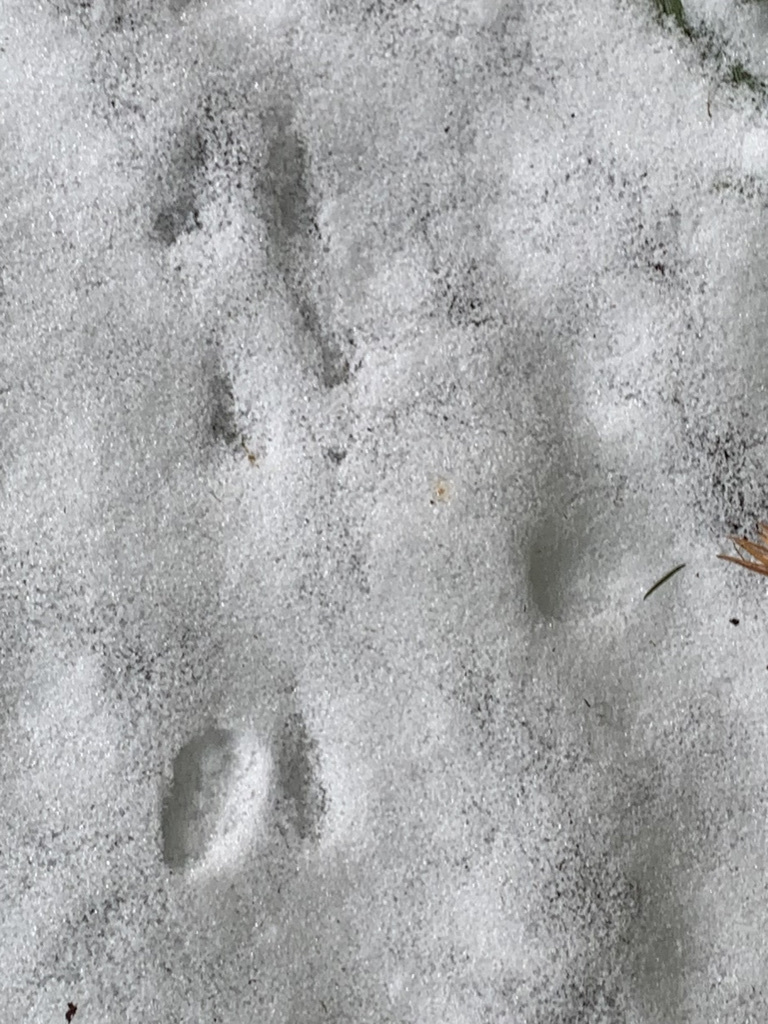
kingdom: Animalia
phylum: Chordata
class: Mammalia
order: Lagomorpha
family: Leporidae
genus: Sylvilagus
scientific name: Sylvilagus floridanus
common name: Eastern cottontail
